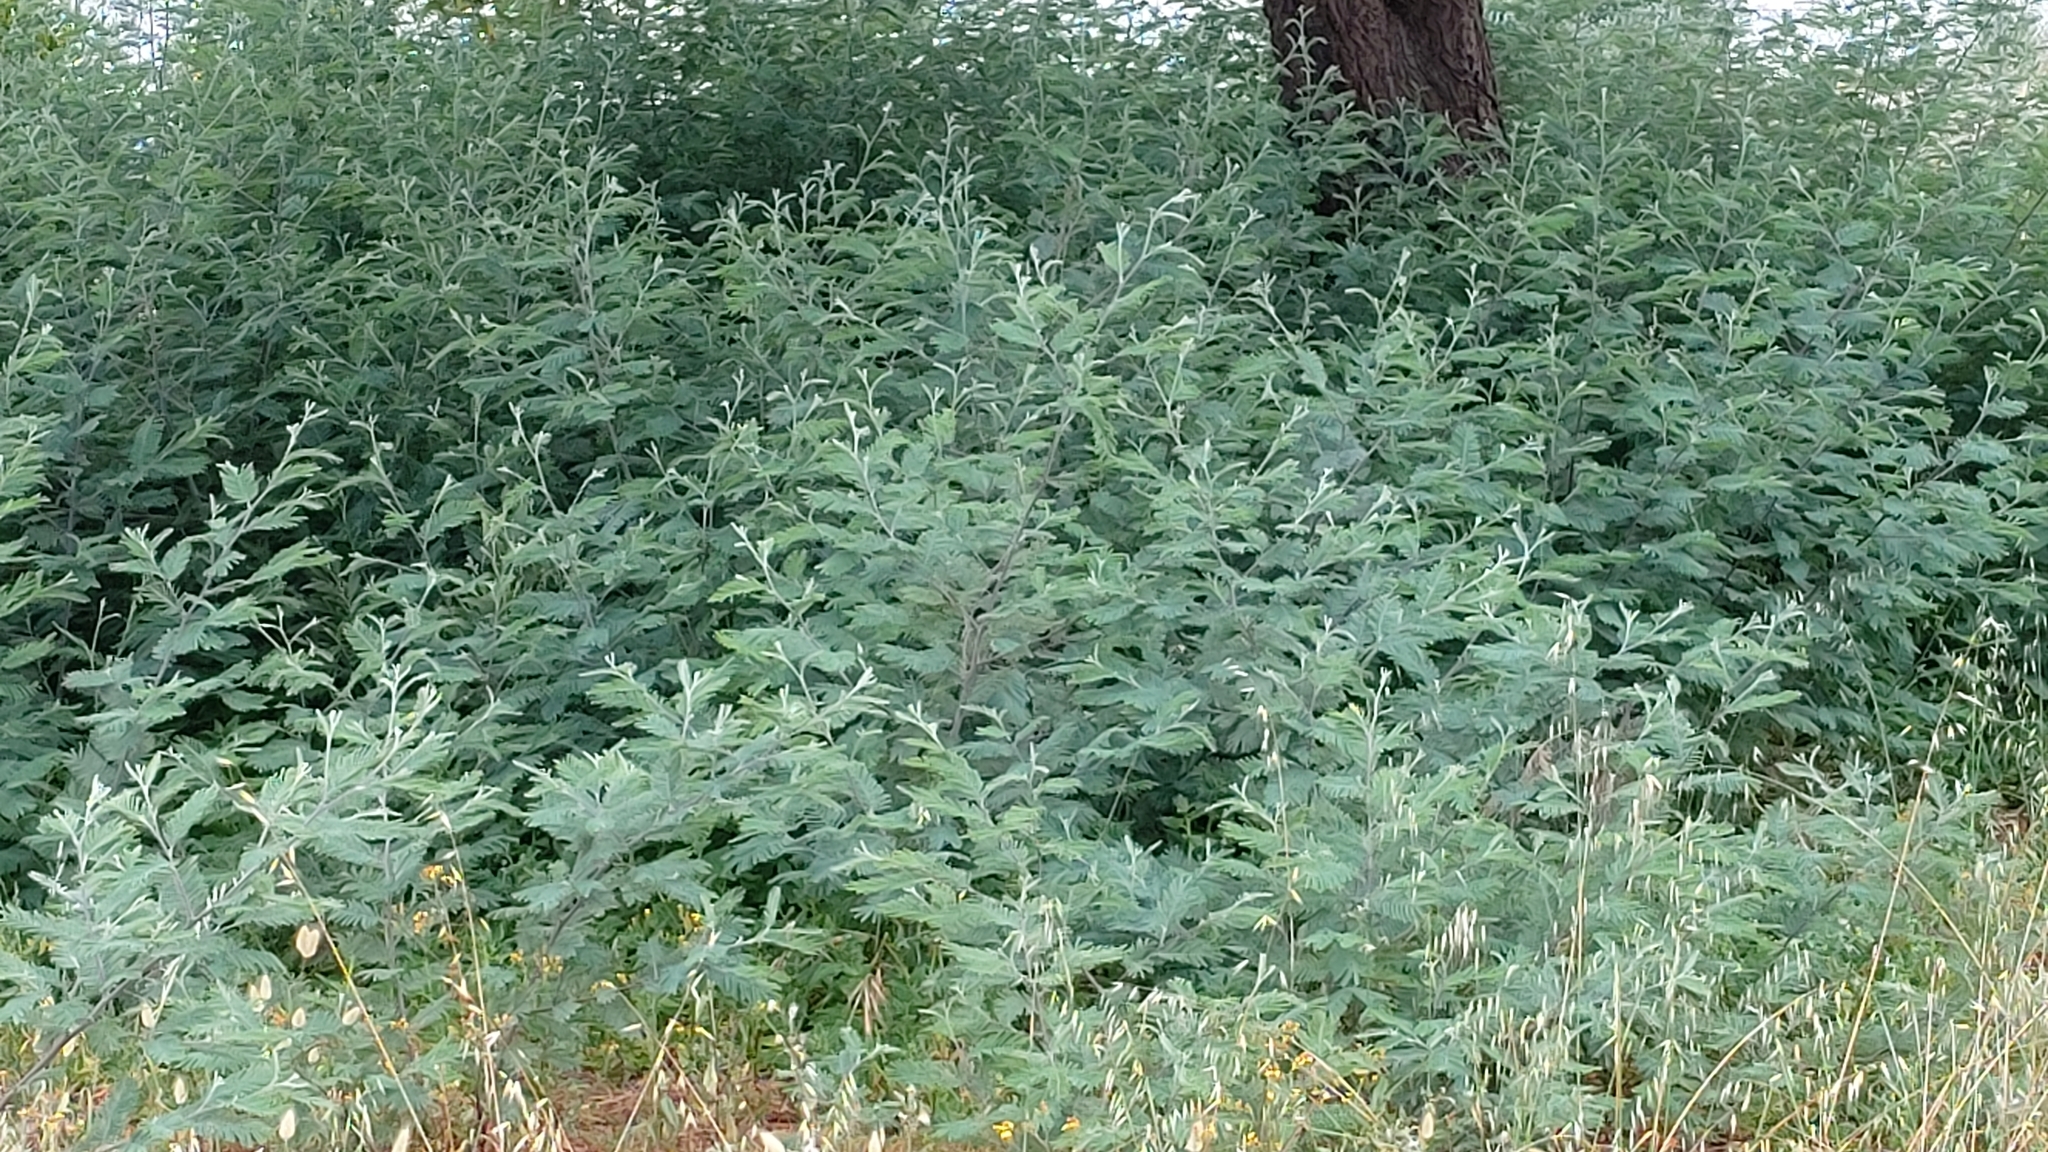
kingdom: Plantae
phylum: Tracheophyta
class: Magnoliopsida
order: Fabales
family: Fabaceae
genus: Acacia
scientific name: Acacia dealbata
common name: Silver wattle
